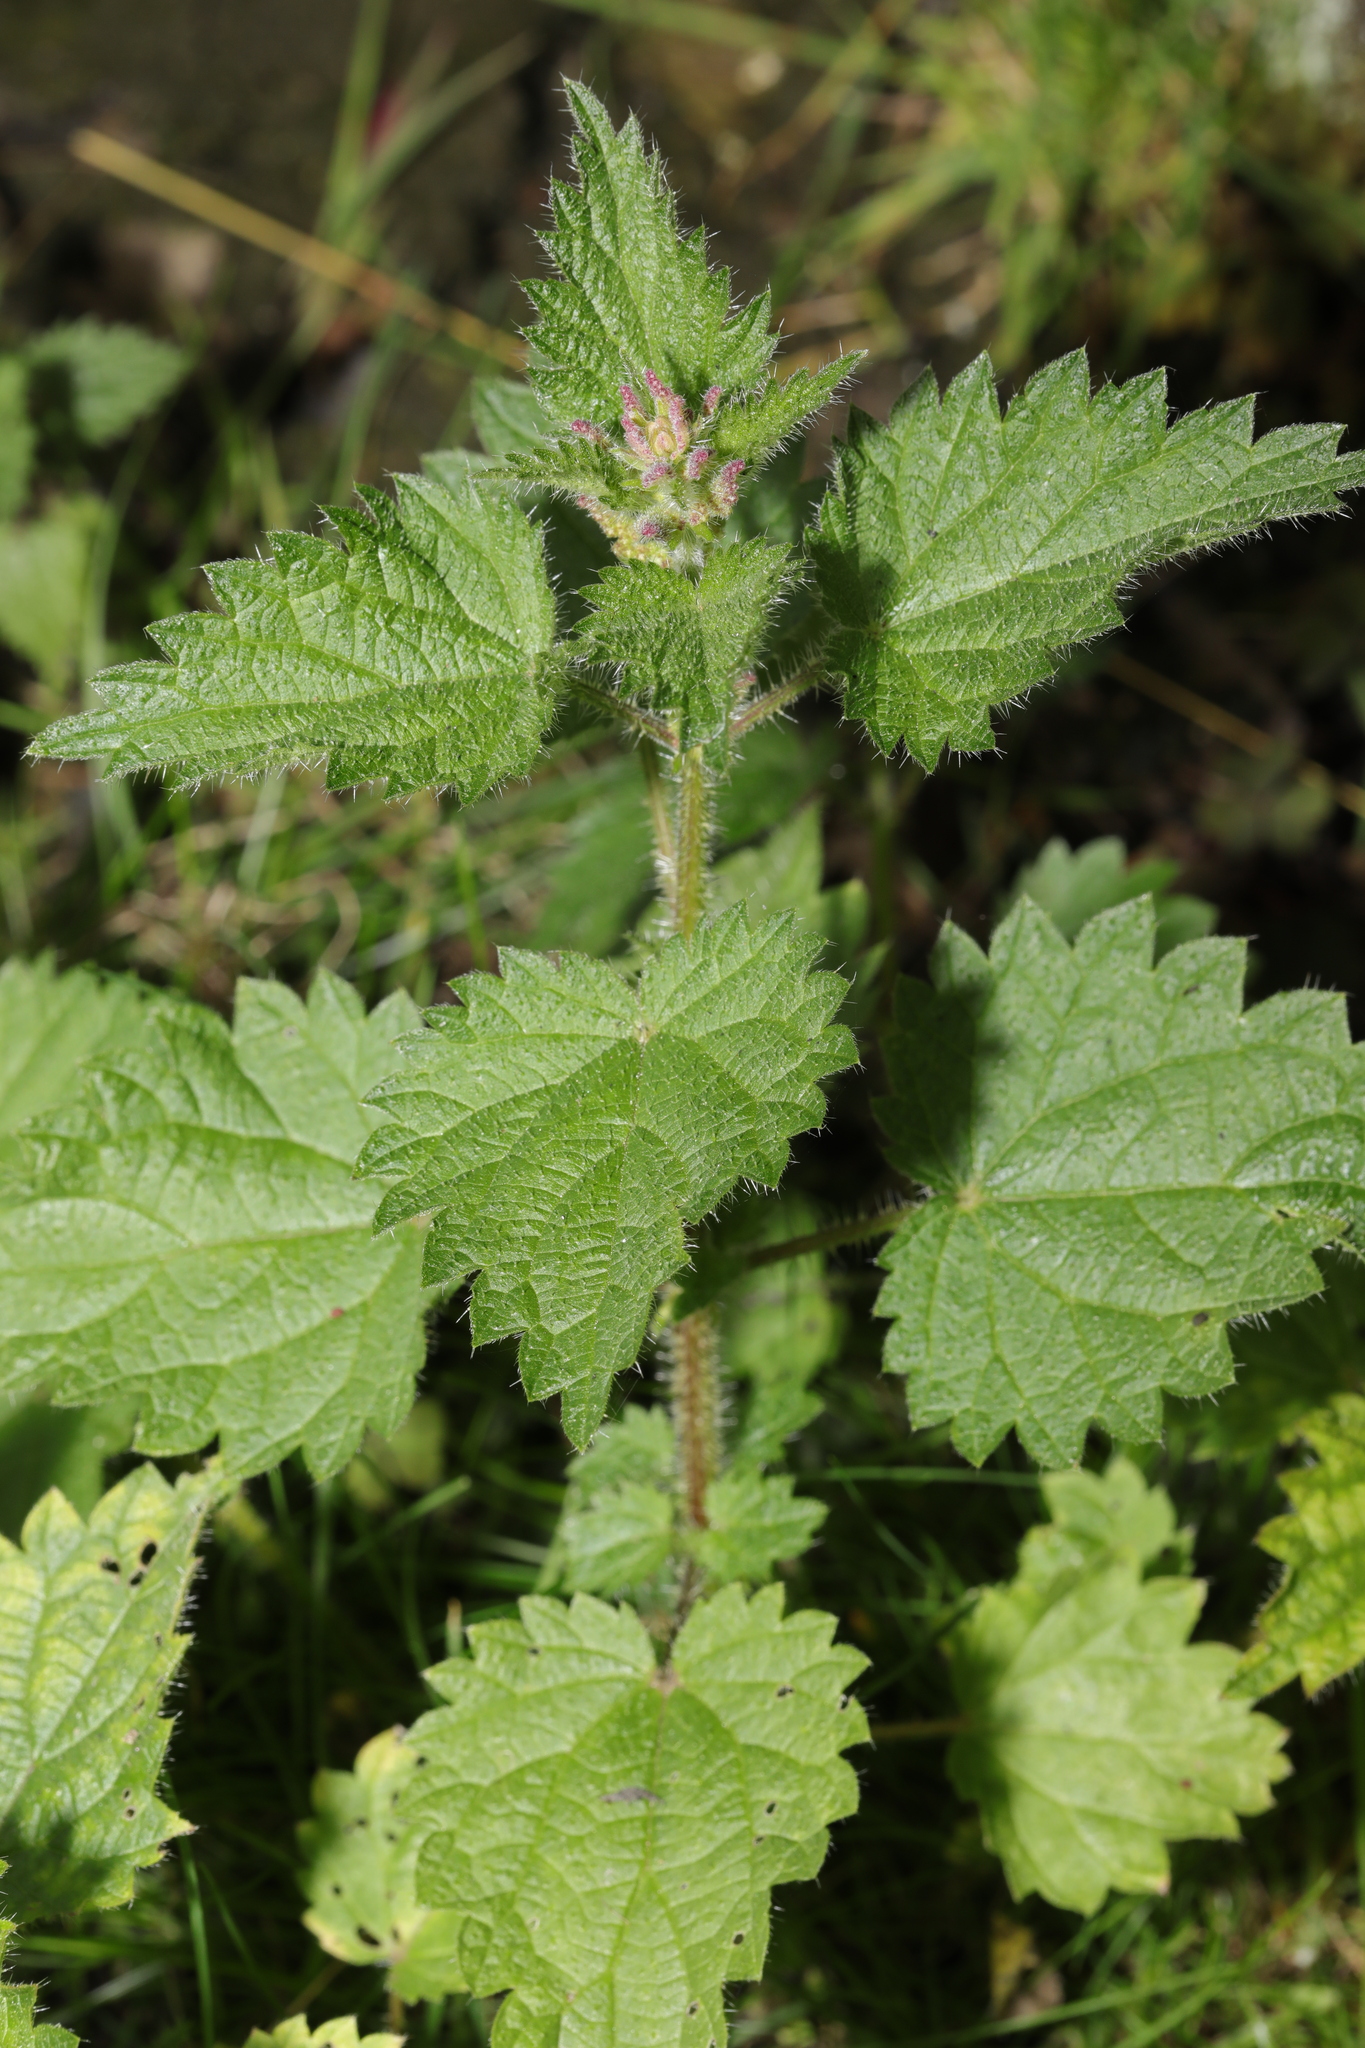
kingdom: Plantae
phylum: Tracheophyta
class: Magnoliopsida
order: Rosales
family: Urticaceae
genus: Urtica
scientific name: Urtica dioica
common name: Common nettle
